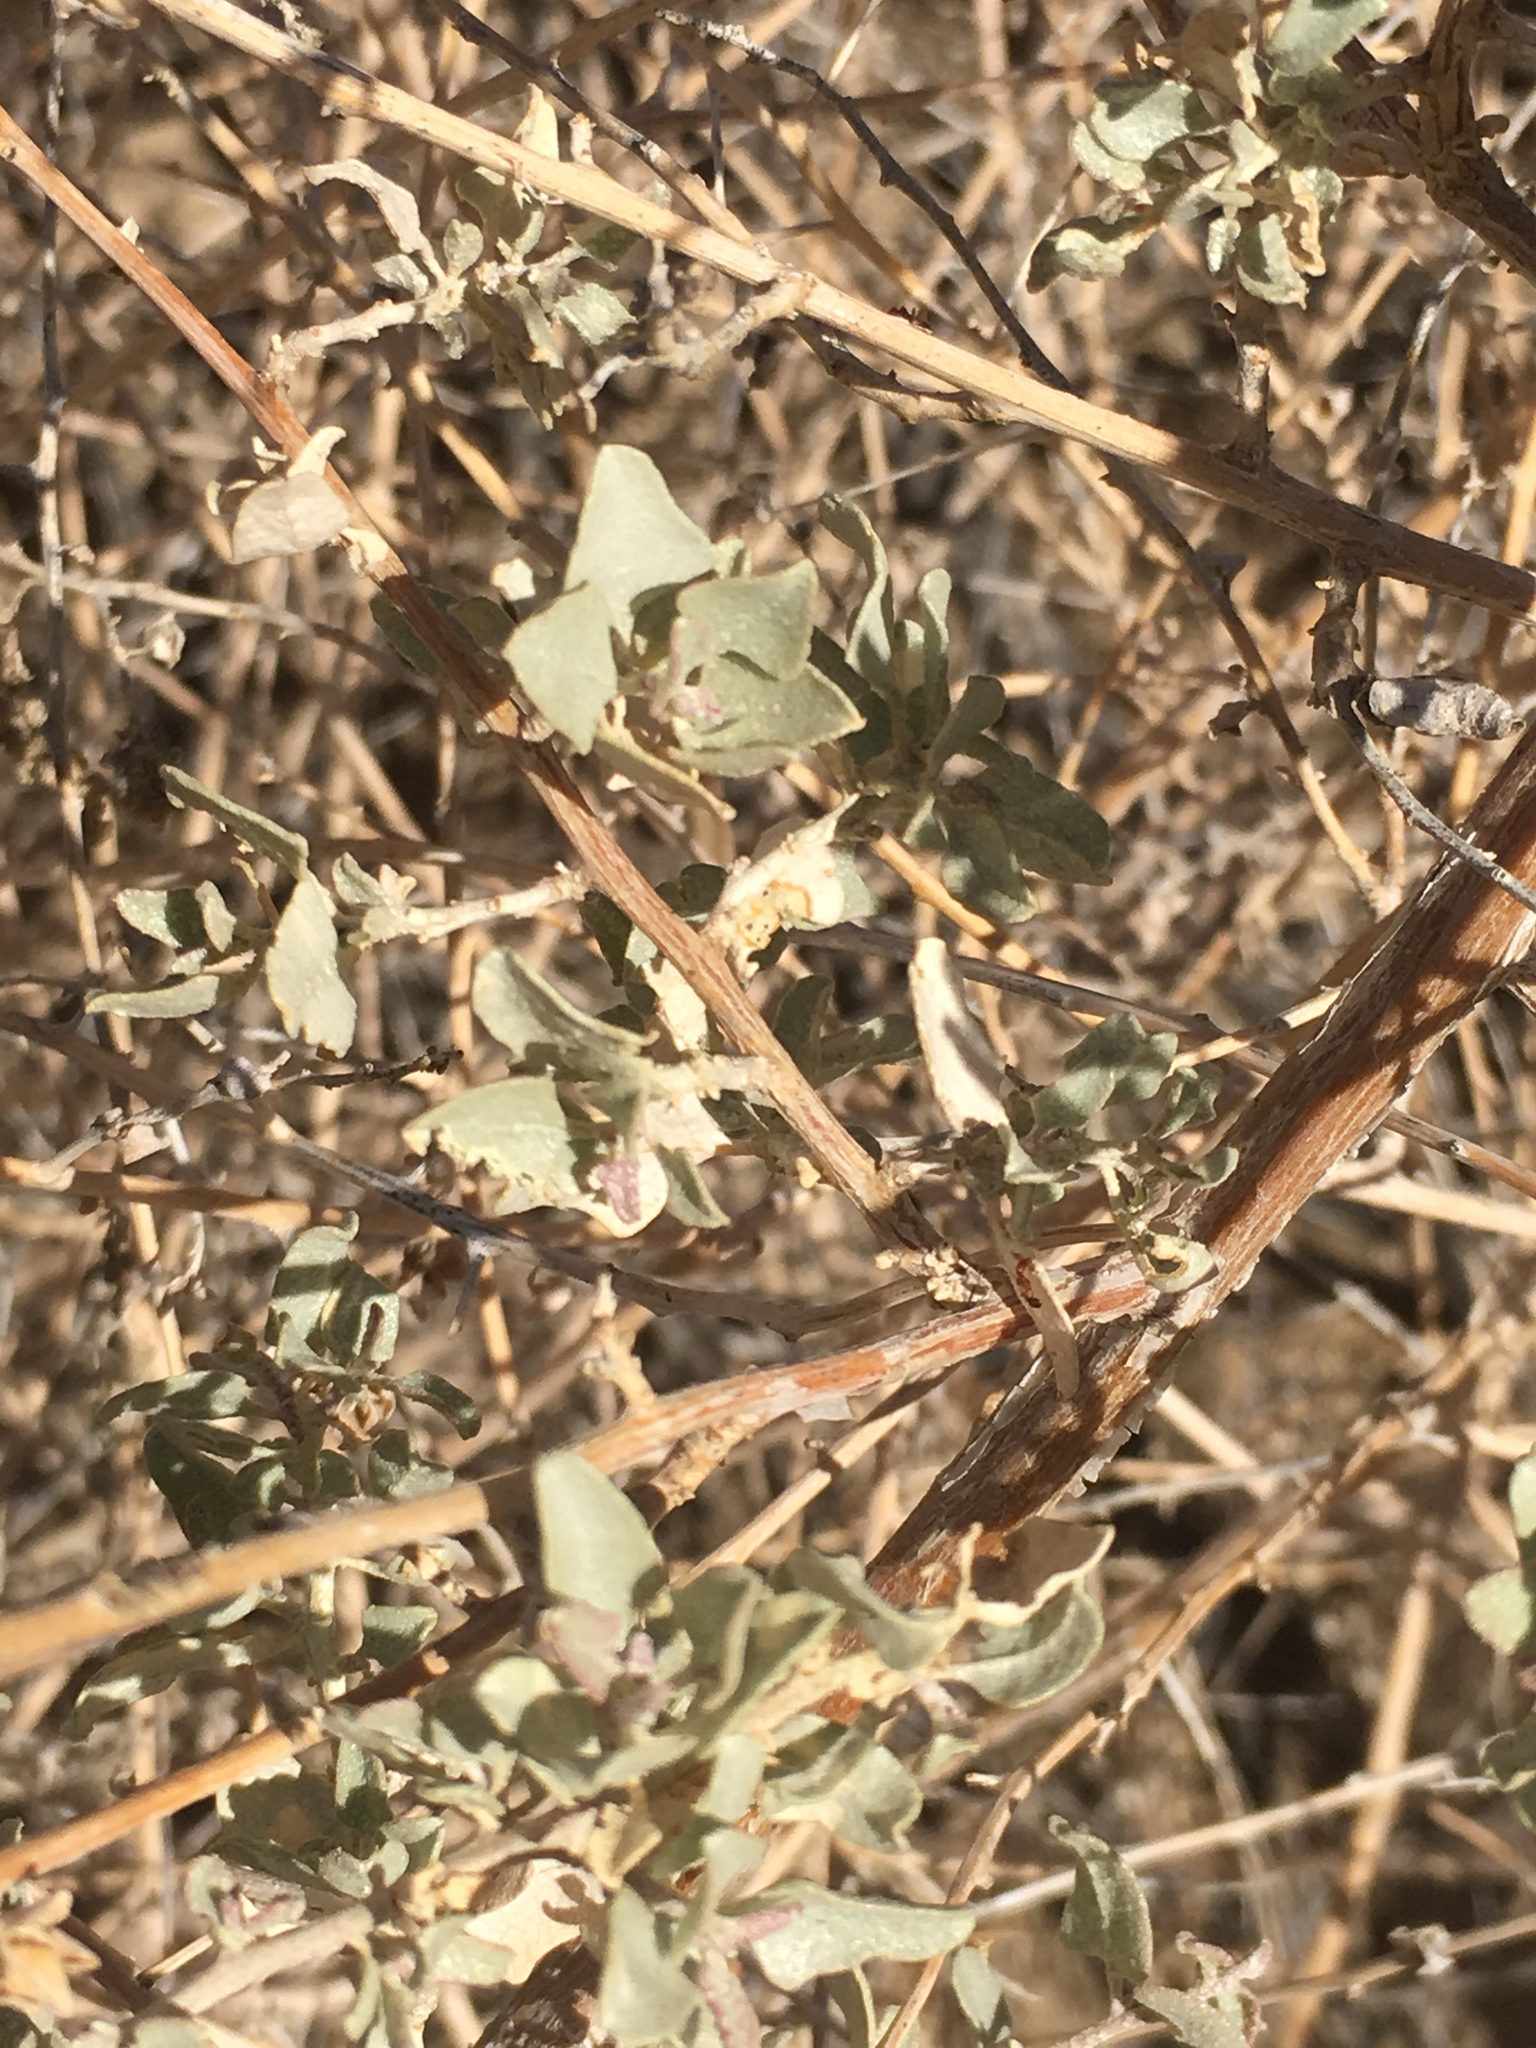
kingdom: Plantae
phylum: Tracheophyta
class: Magnoliopsida
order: Caryophyllales
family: Amaranthaceae
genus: Atriplex
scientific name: Atriplex lentiformis
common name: Big saltbush
